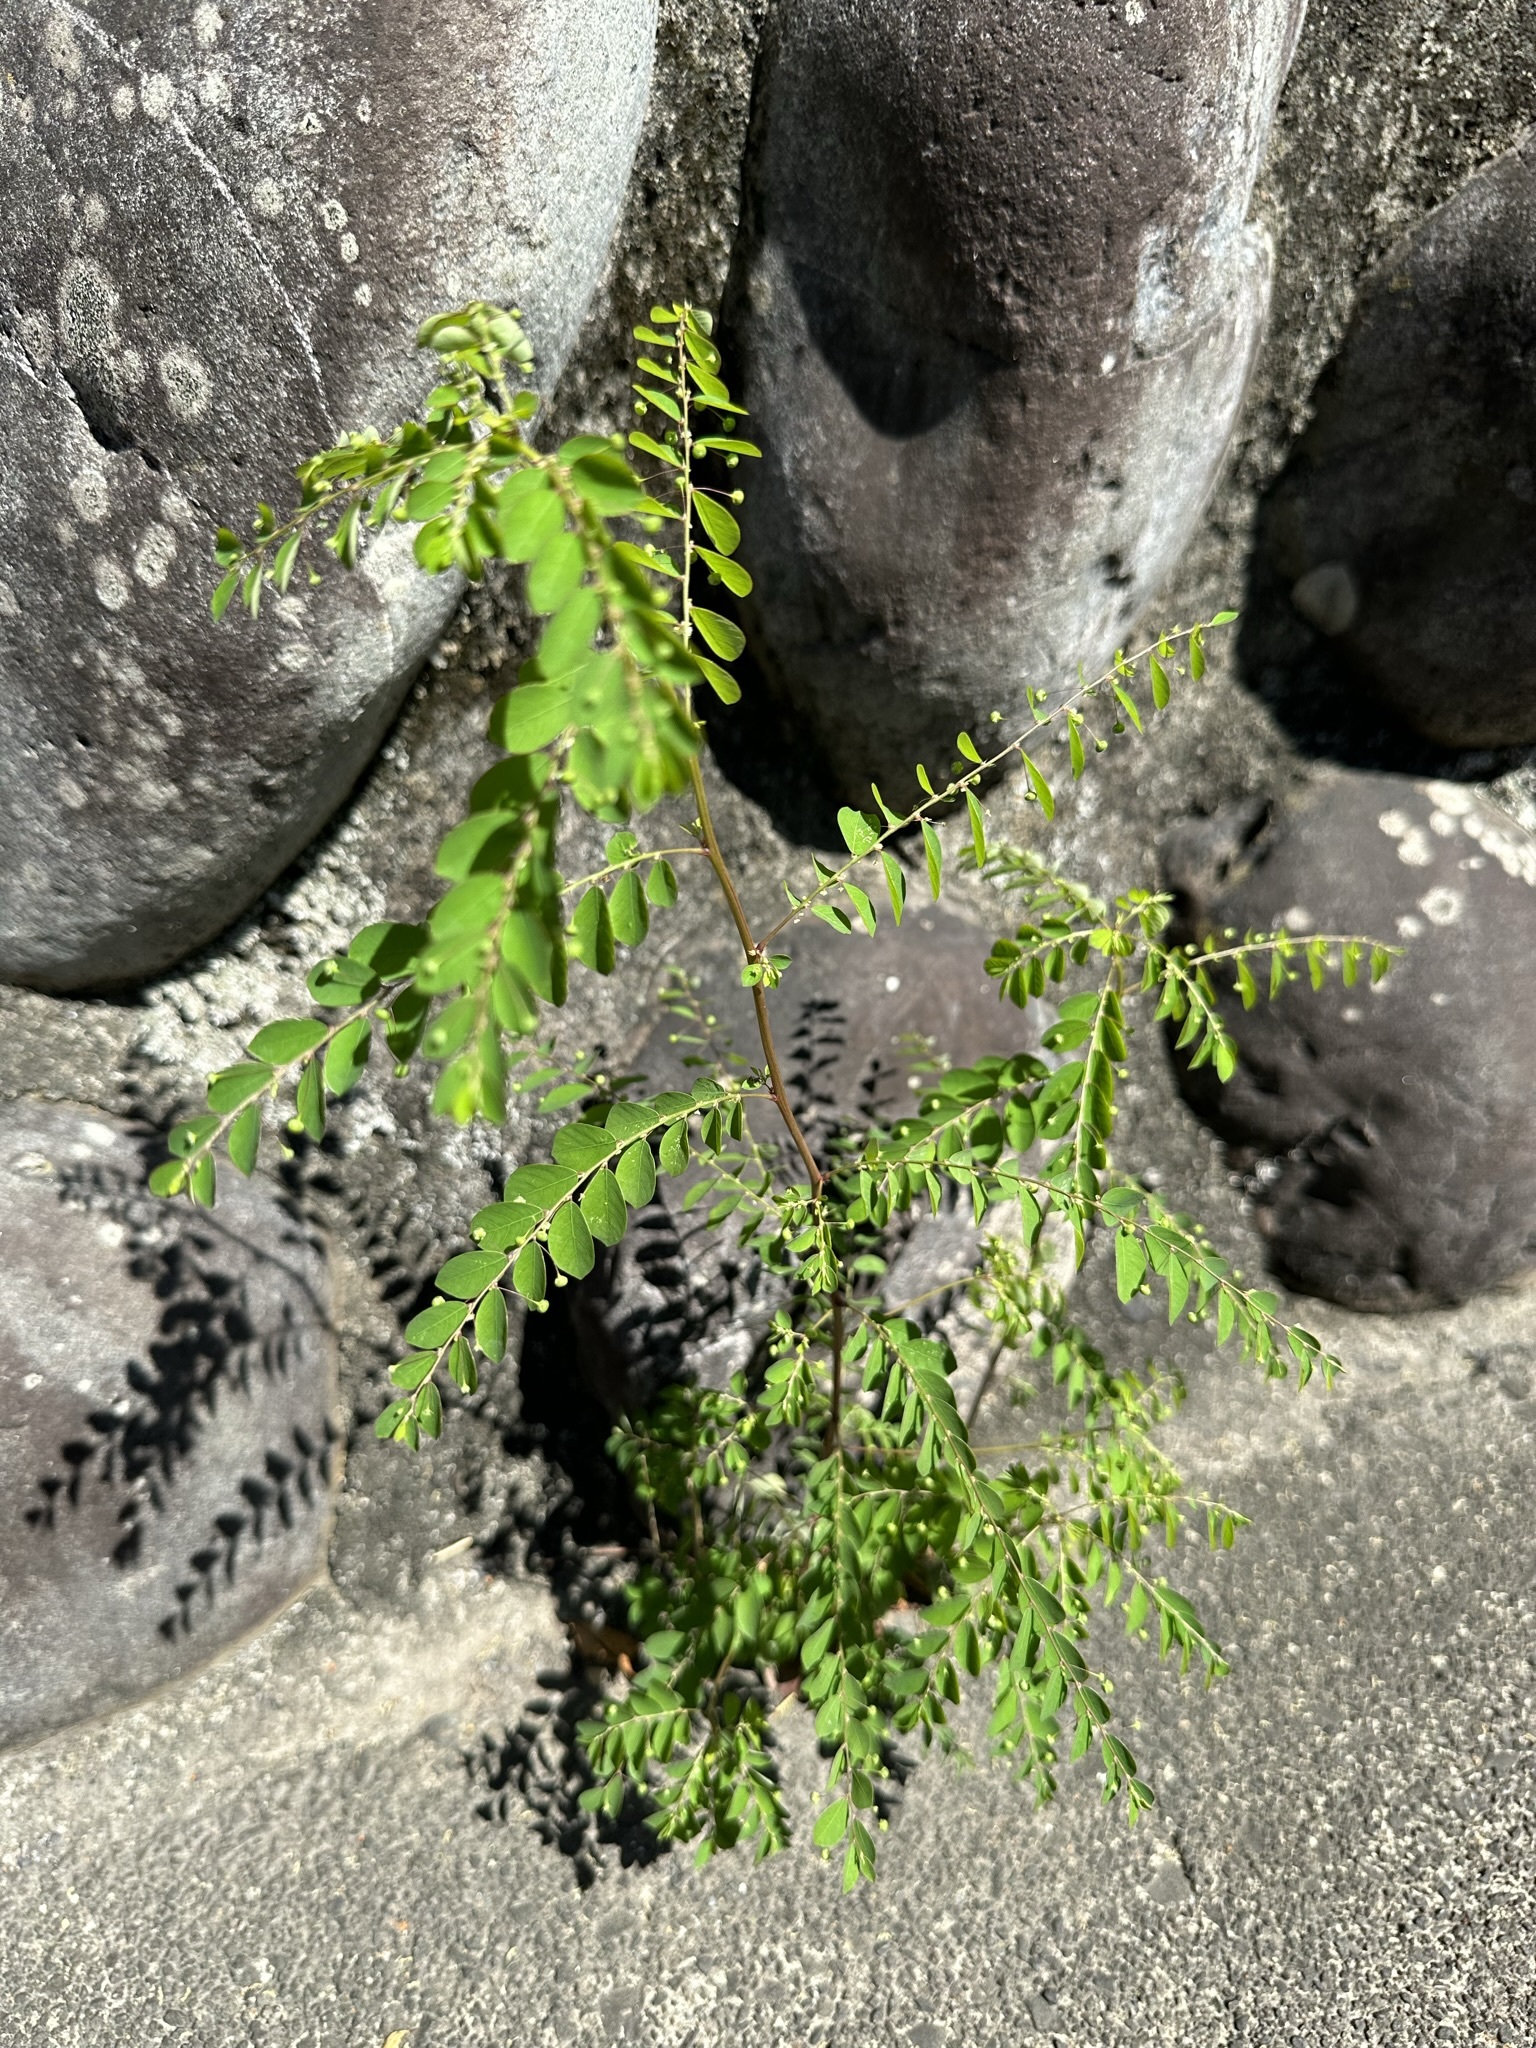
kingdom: Plantae
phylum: Tracheophyta
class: Magnoliopsida
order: Malpighiales
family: Phyllanthaceae
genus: Phyllanthus
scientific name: Phyllanthus tenellus
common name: Mascarene island leaf-flower
